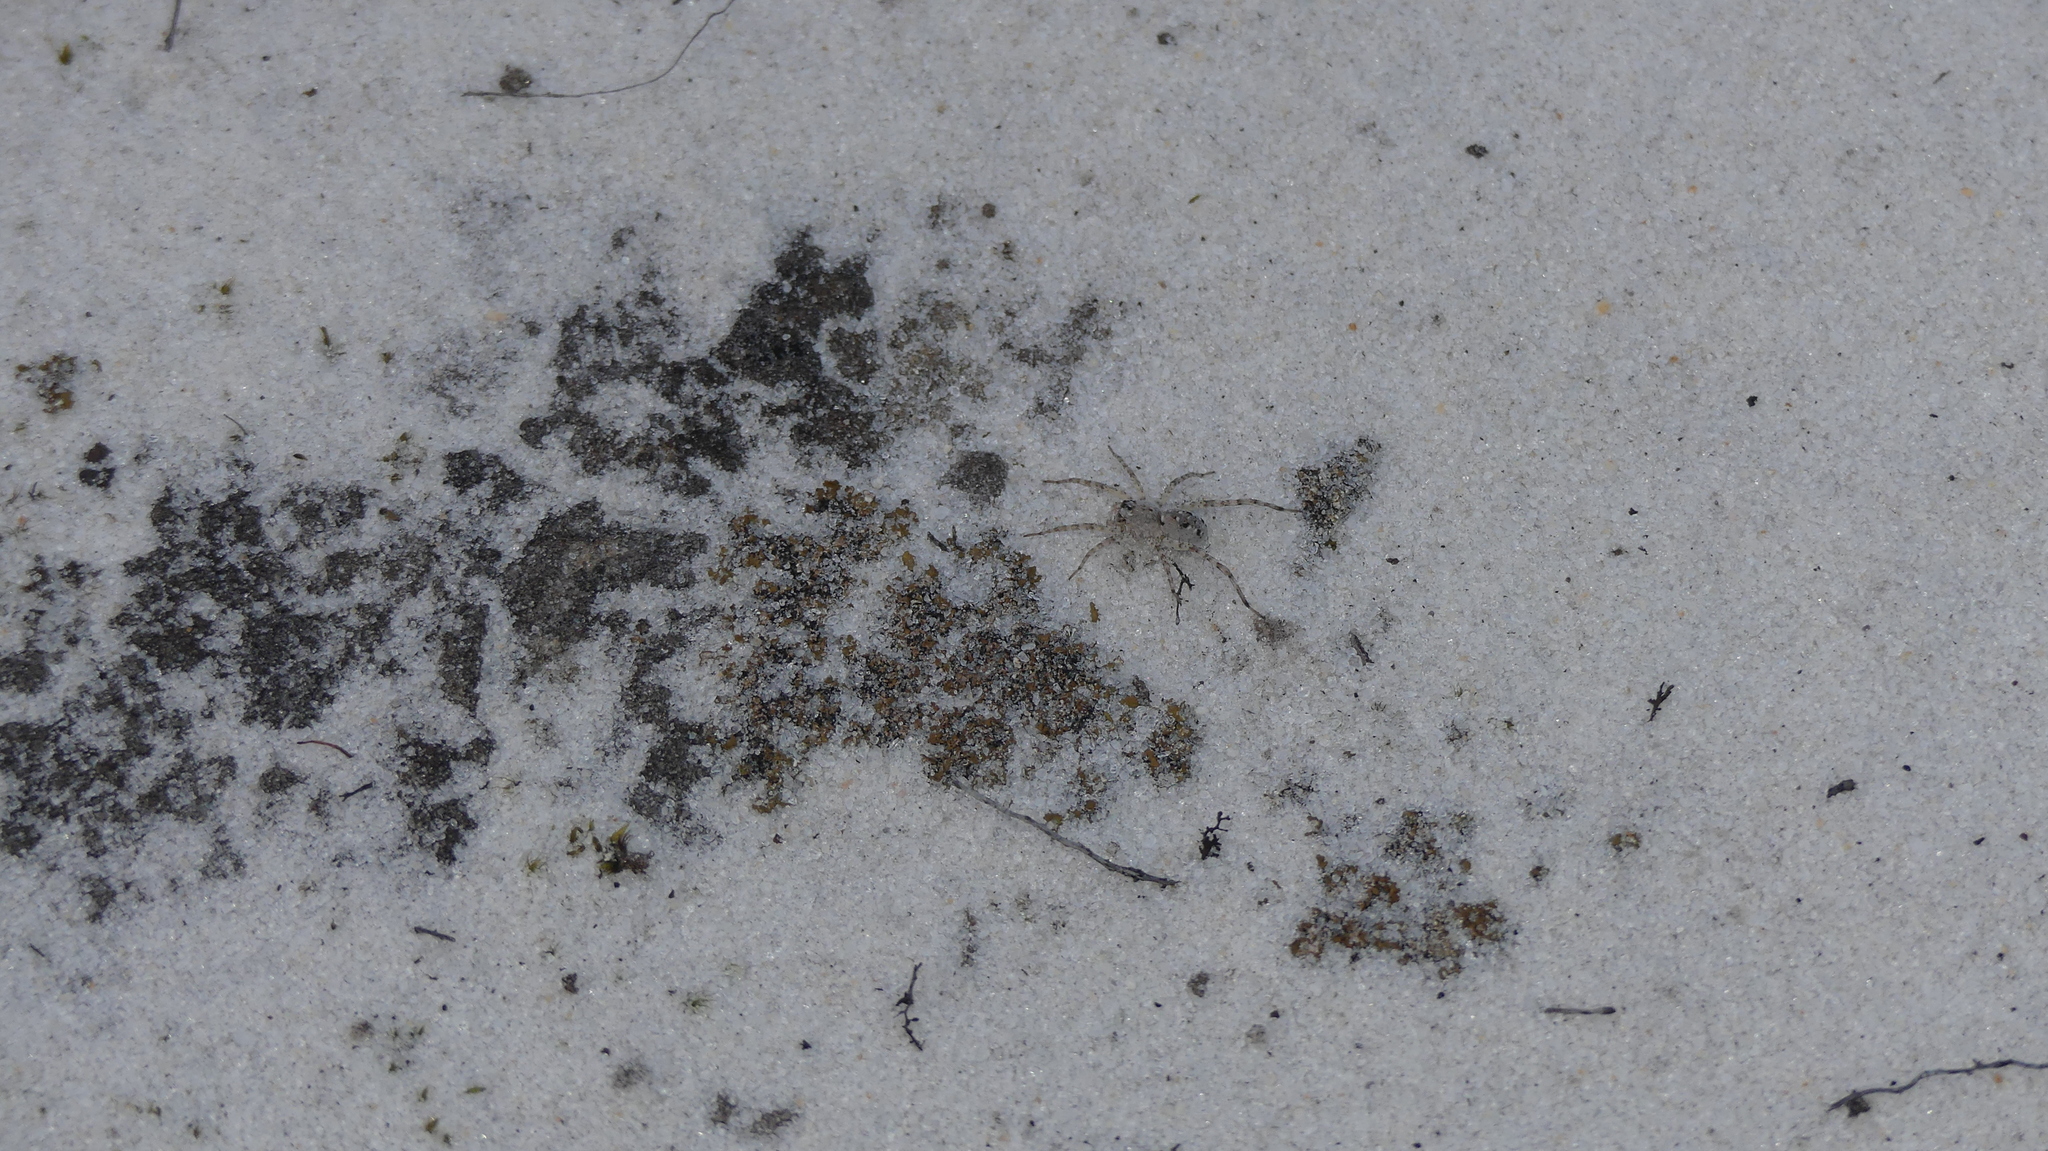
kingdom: Animalia
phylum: Arthropoda
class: Arachnida
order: Araneae
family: Lycosidae
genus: Arctosa
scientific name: Arctosa littoralis
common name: Wolf spiders
